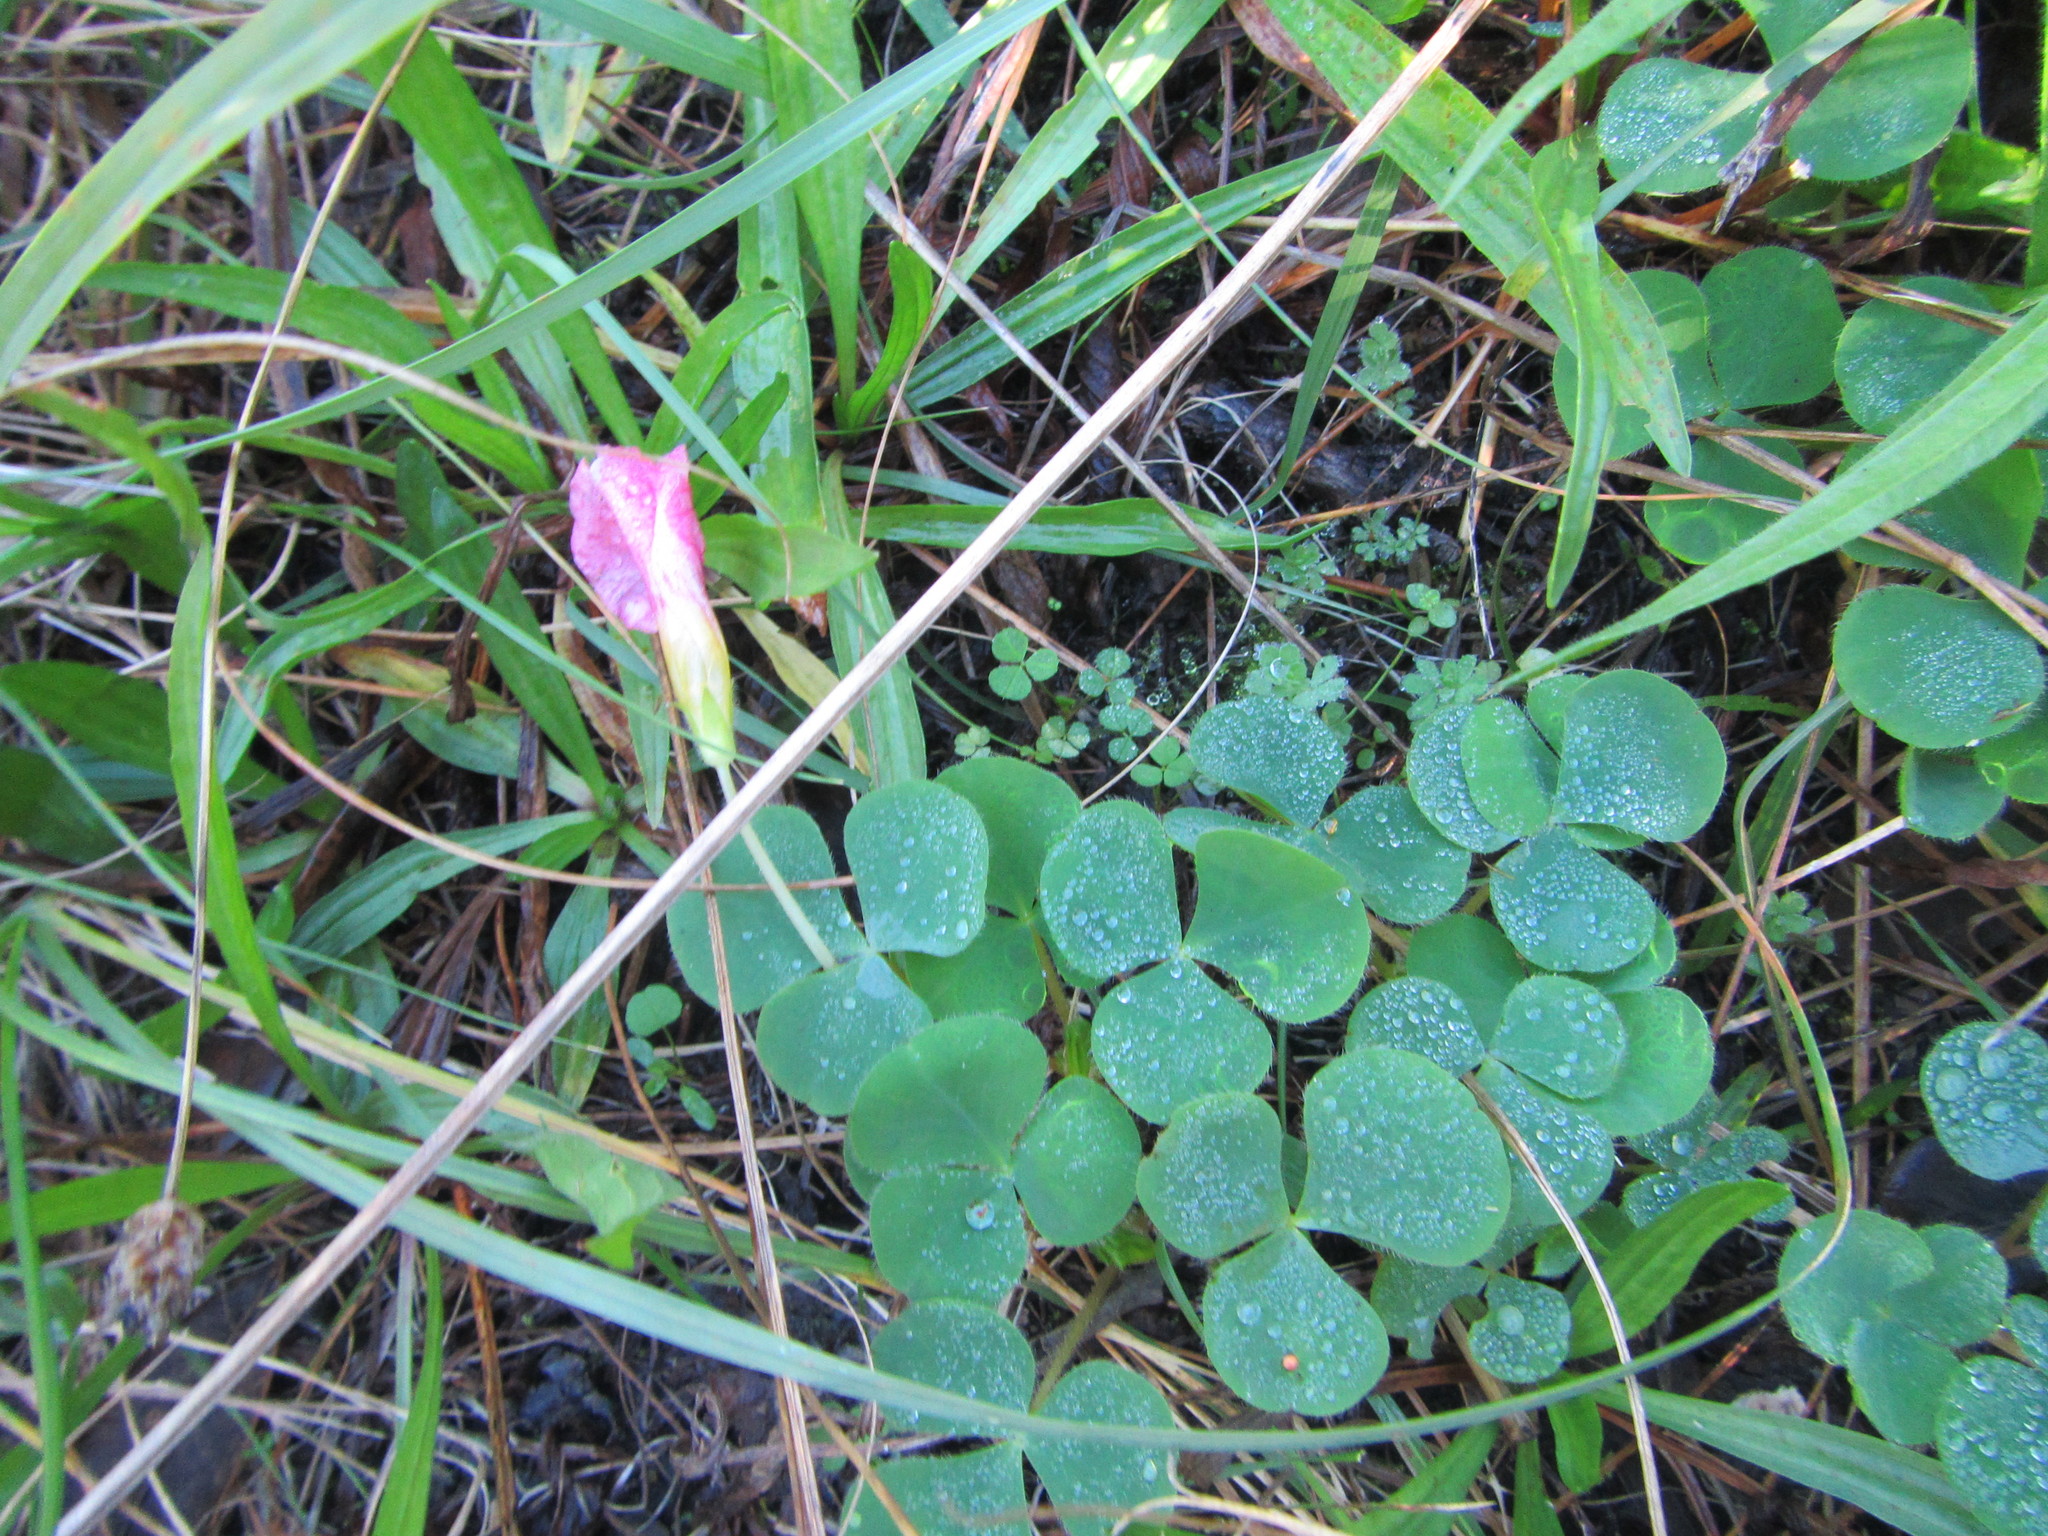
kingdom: Plantae
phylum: Tracheophyta
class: Magnoliopsida
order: Oxalidales
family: Oxalidaceae
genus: Oxalis
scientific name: Oxalis purpurea
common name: Purple woodsorrel
